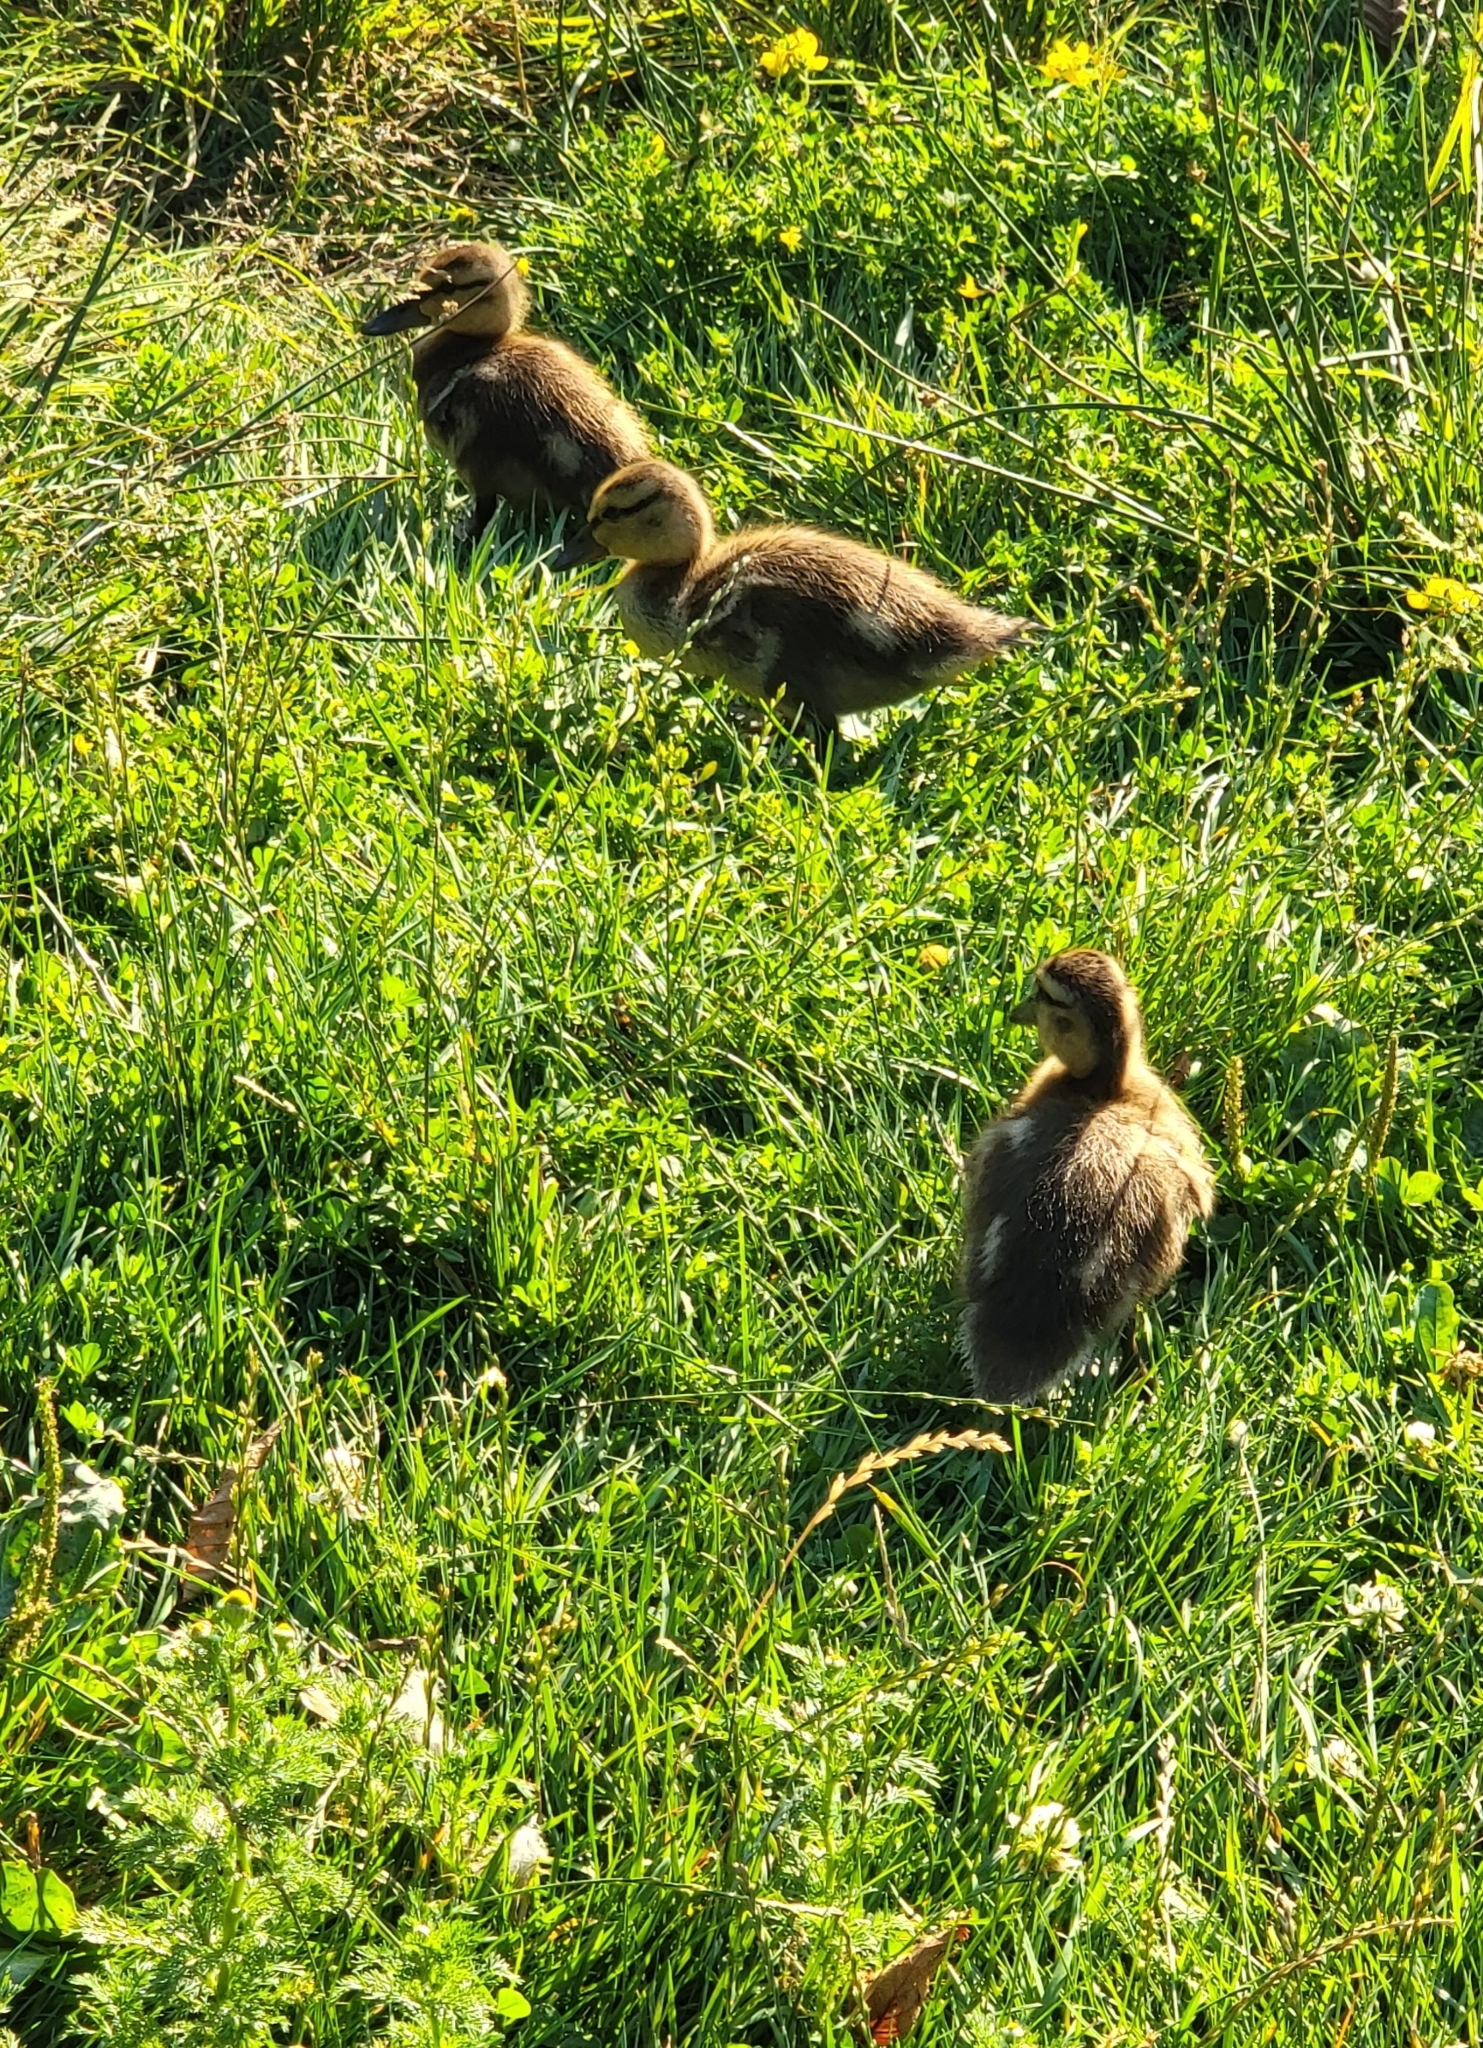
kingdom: Animalia
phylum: Chordata
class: Aves
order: Anseriformes
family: Anatidae
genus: Anas
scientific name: Anas platyrhynchos
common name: Mallard
